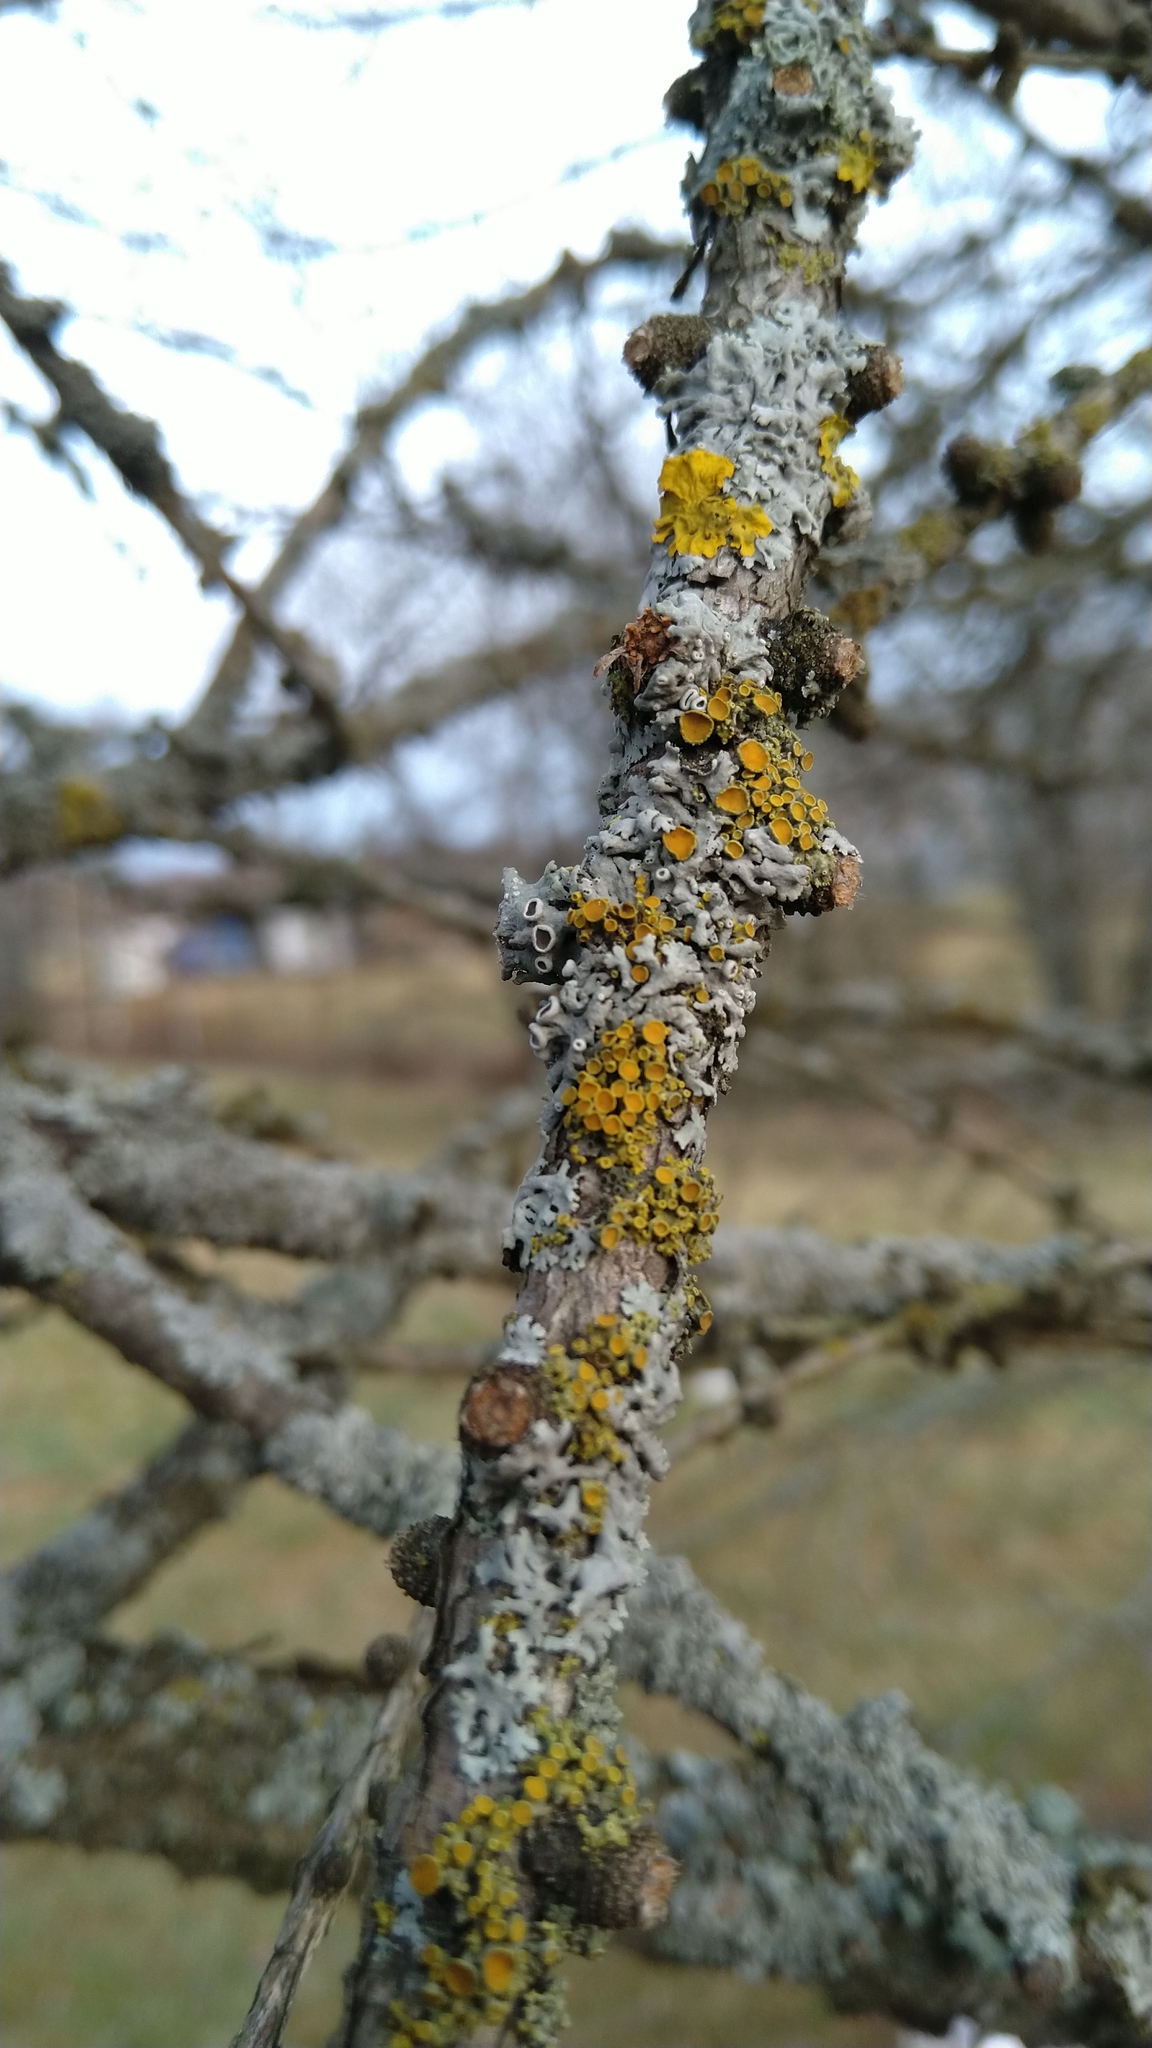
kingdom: Fungi
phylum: Ascomycota
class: Lecanoromycetes
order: Teloschistales
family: Teloschistaceae
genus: Polycauliona
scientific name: Polycauliona polycarpa
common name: Pin-cushion sunburst lichen
